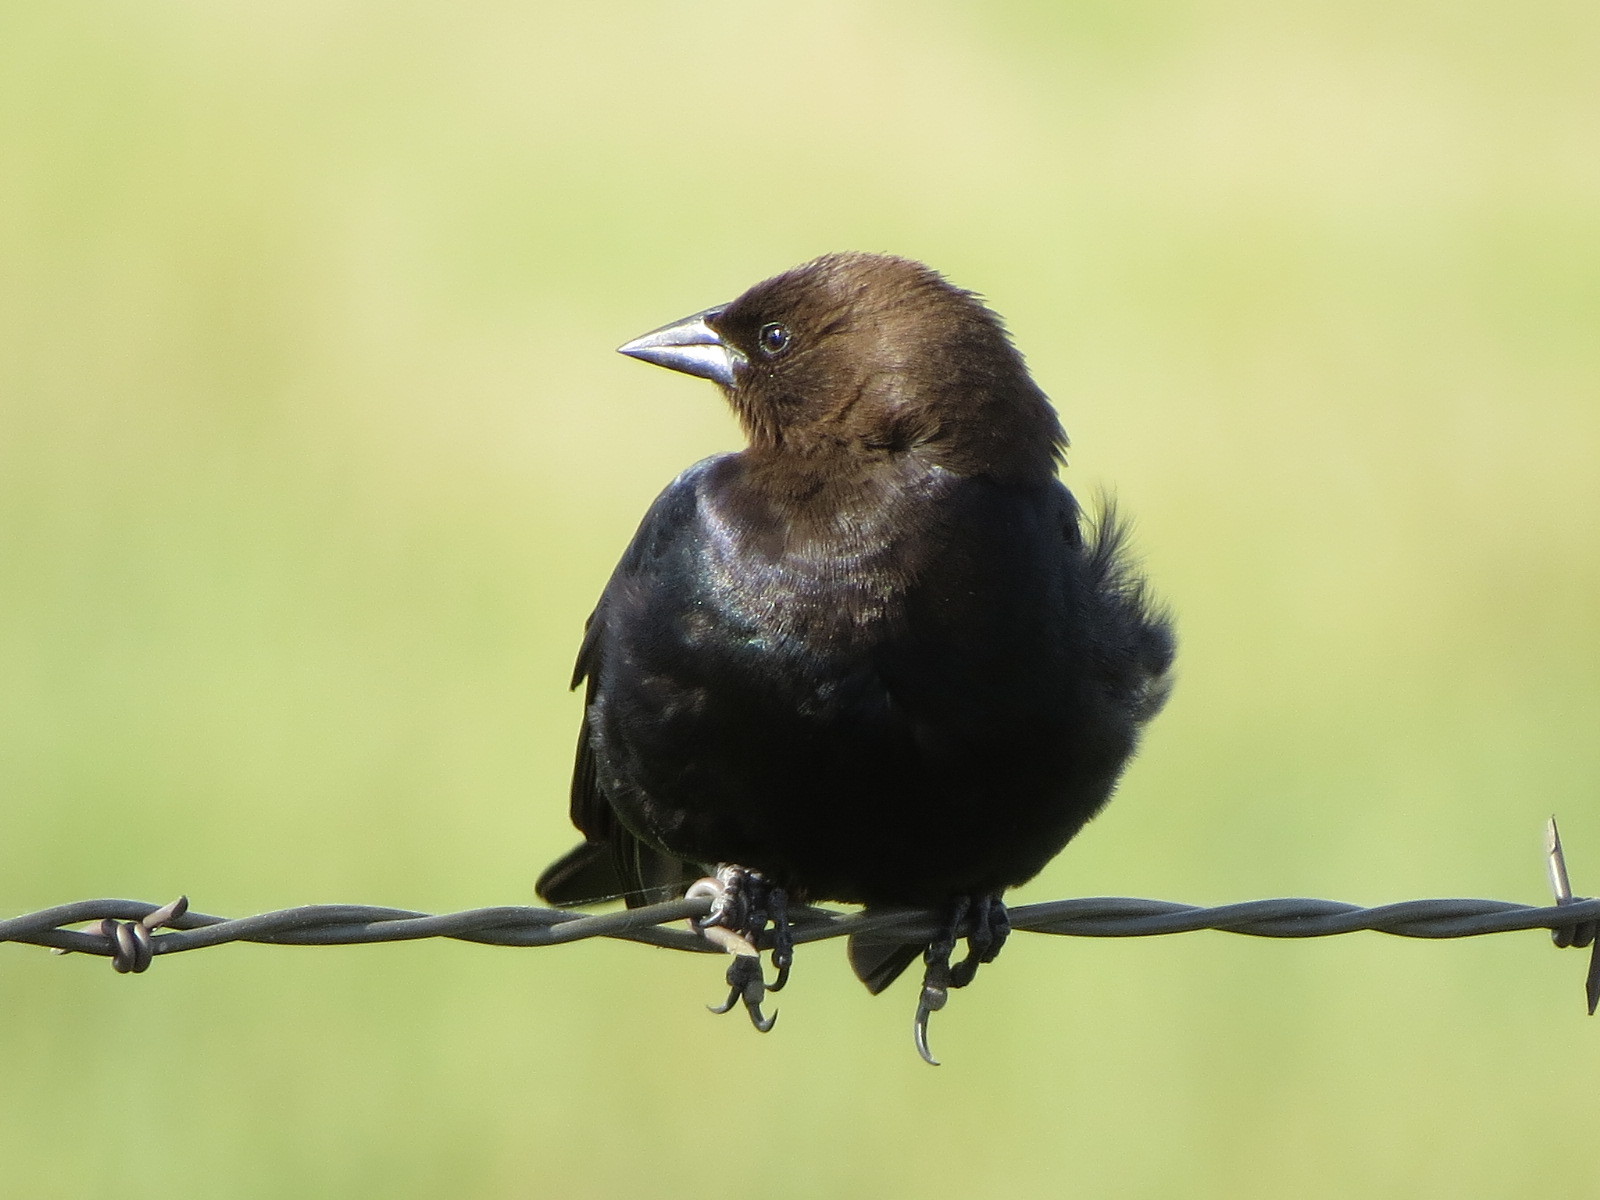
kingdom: Animalia
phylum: Chordata
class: Aves
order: Passeriformes
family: Icteridae
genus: Molothrus
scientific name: Molothrus ater
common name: Brown-headed cowbird
